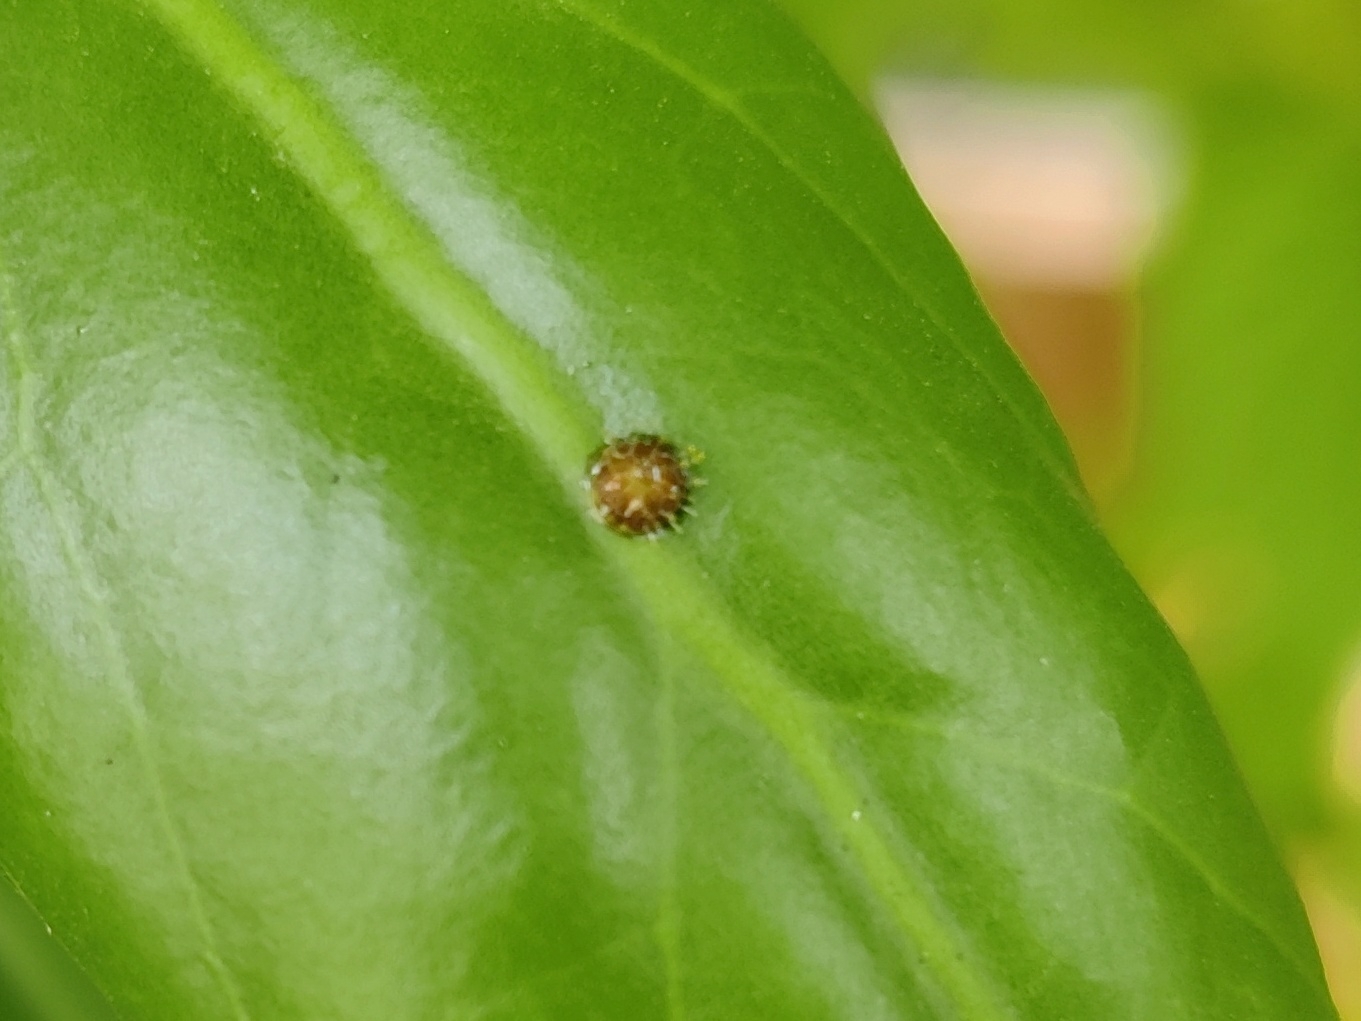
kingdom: Animalia
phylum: Arthropoda
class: Insecta
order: Lepidoptera
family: Nymphalidae
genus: Euthalia
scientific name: Euthalia lubentina
